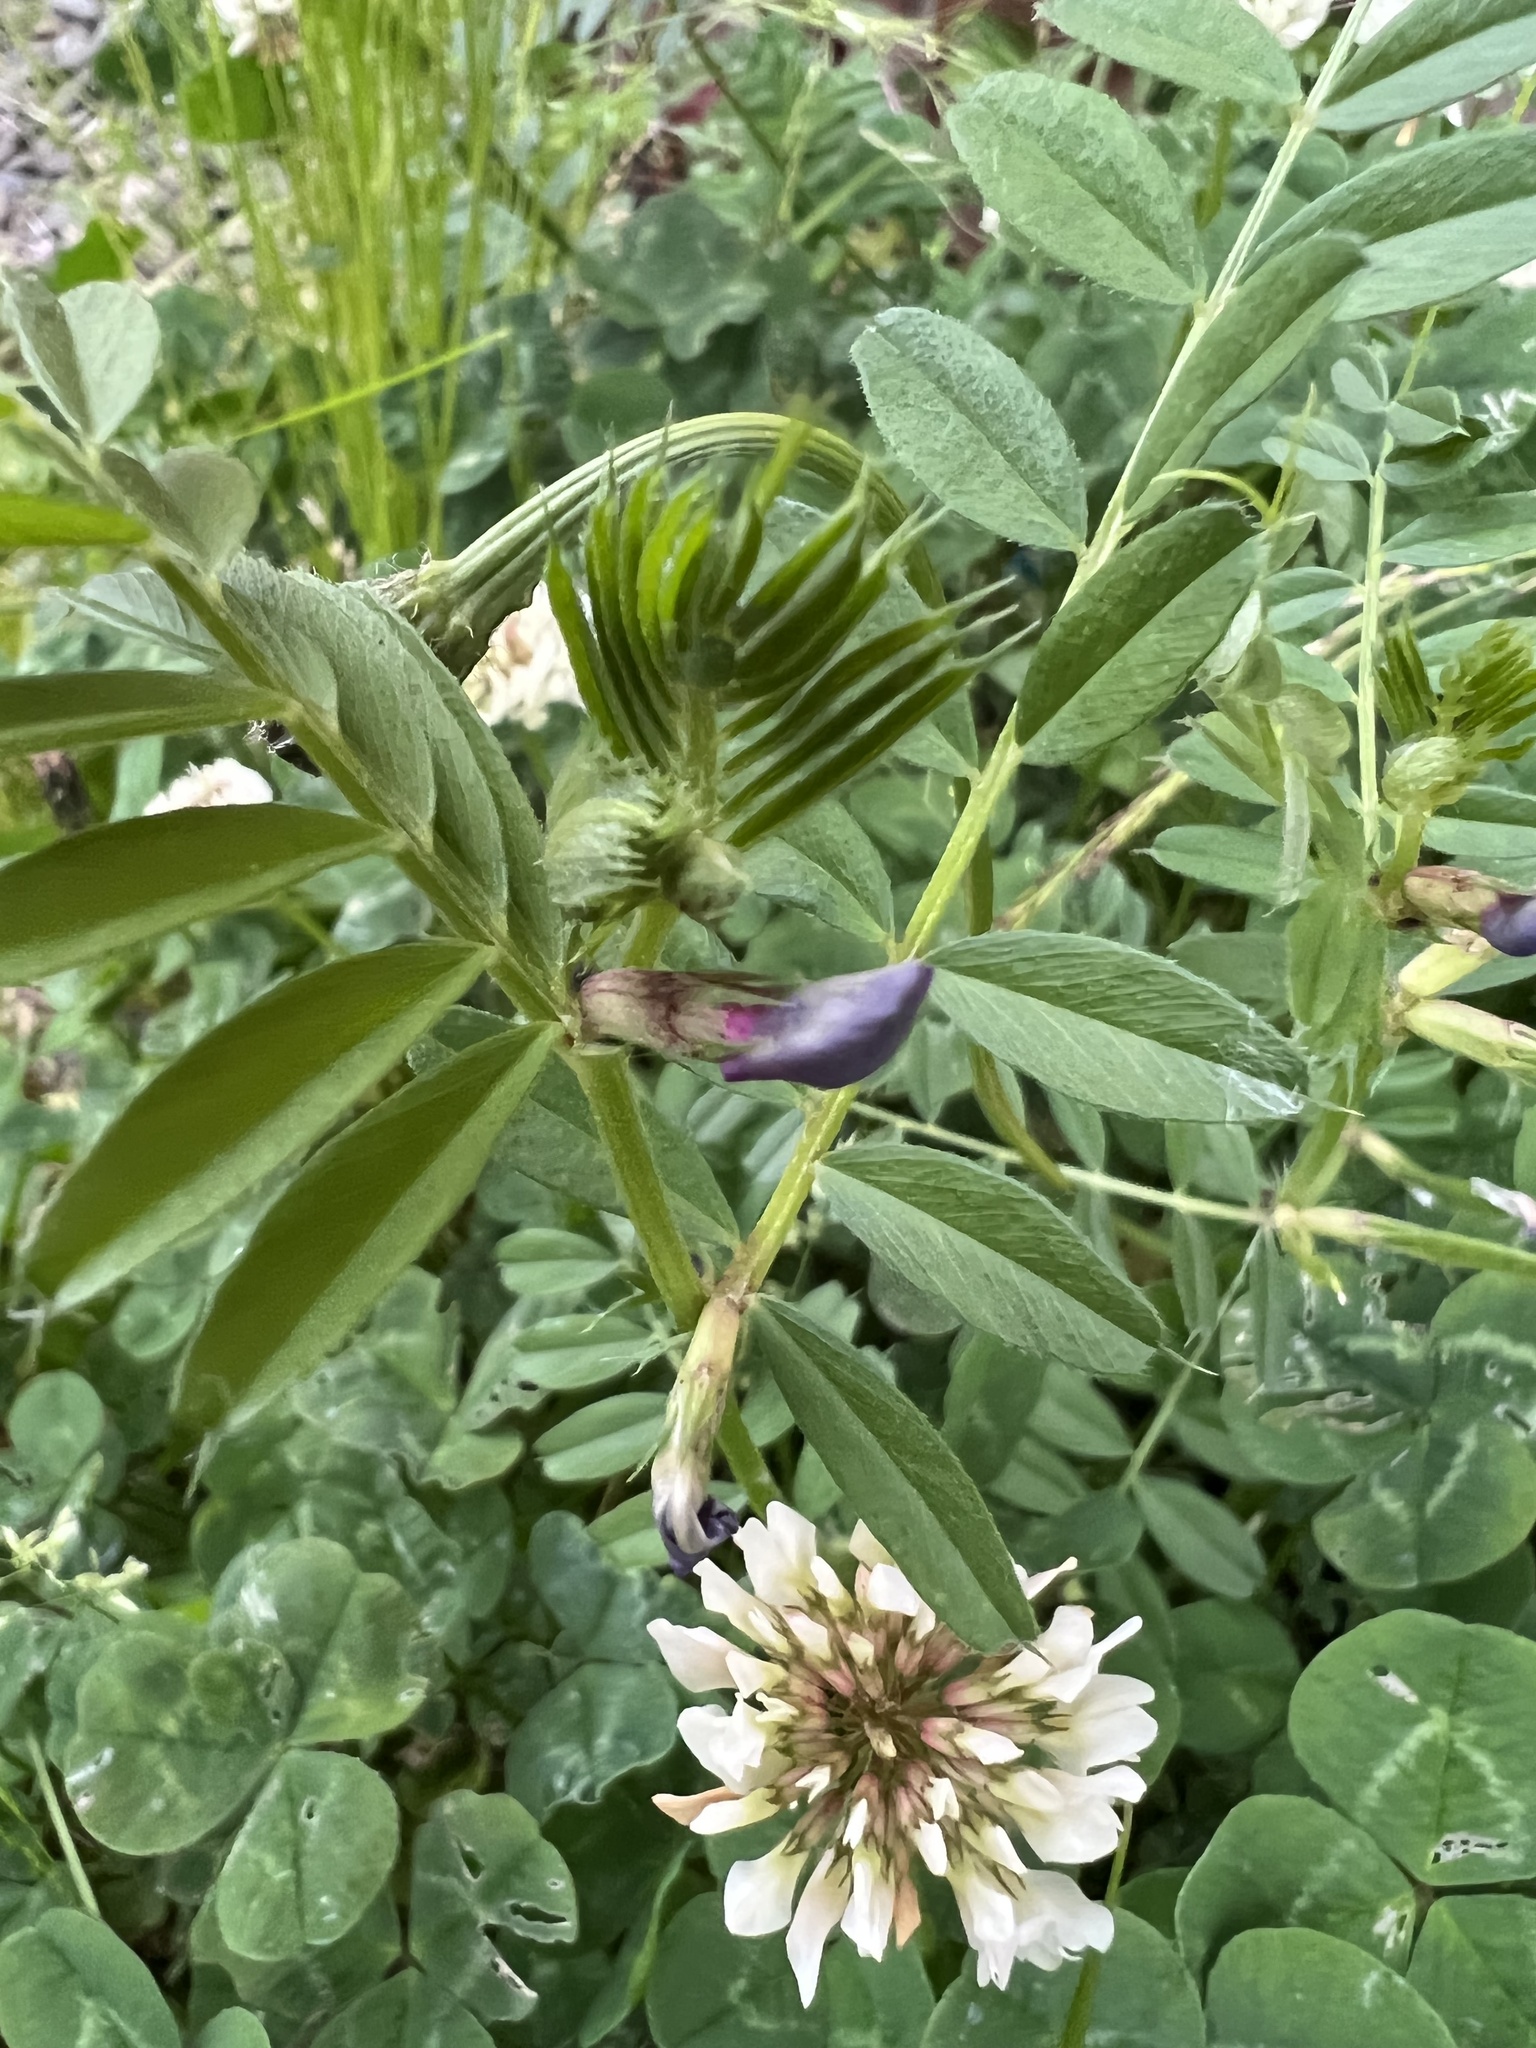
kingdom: Plantae
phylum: Tracheophyta
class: Magnoliopsida
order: Fabales
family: Fabaceae
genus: Vicia
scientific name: Vicia sativa
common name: Garden vetch
